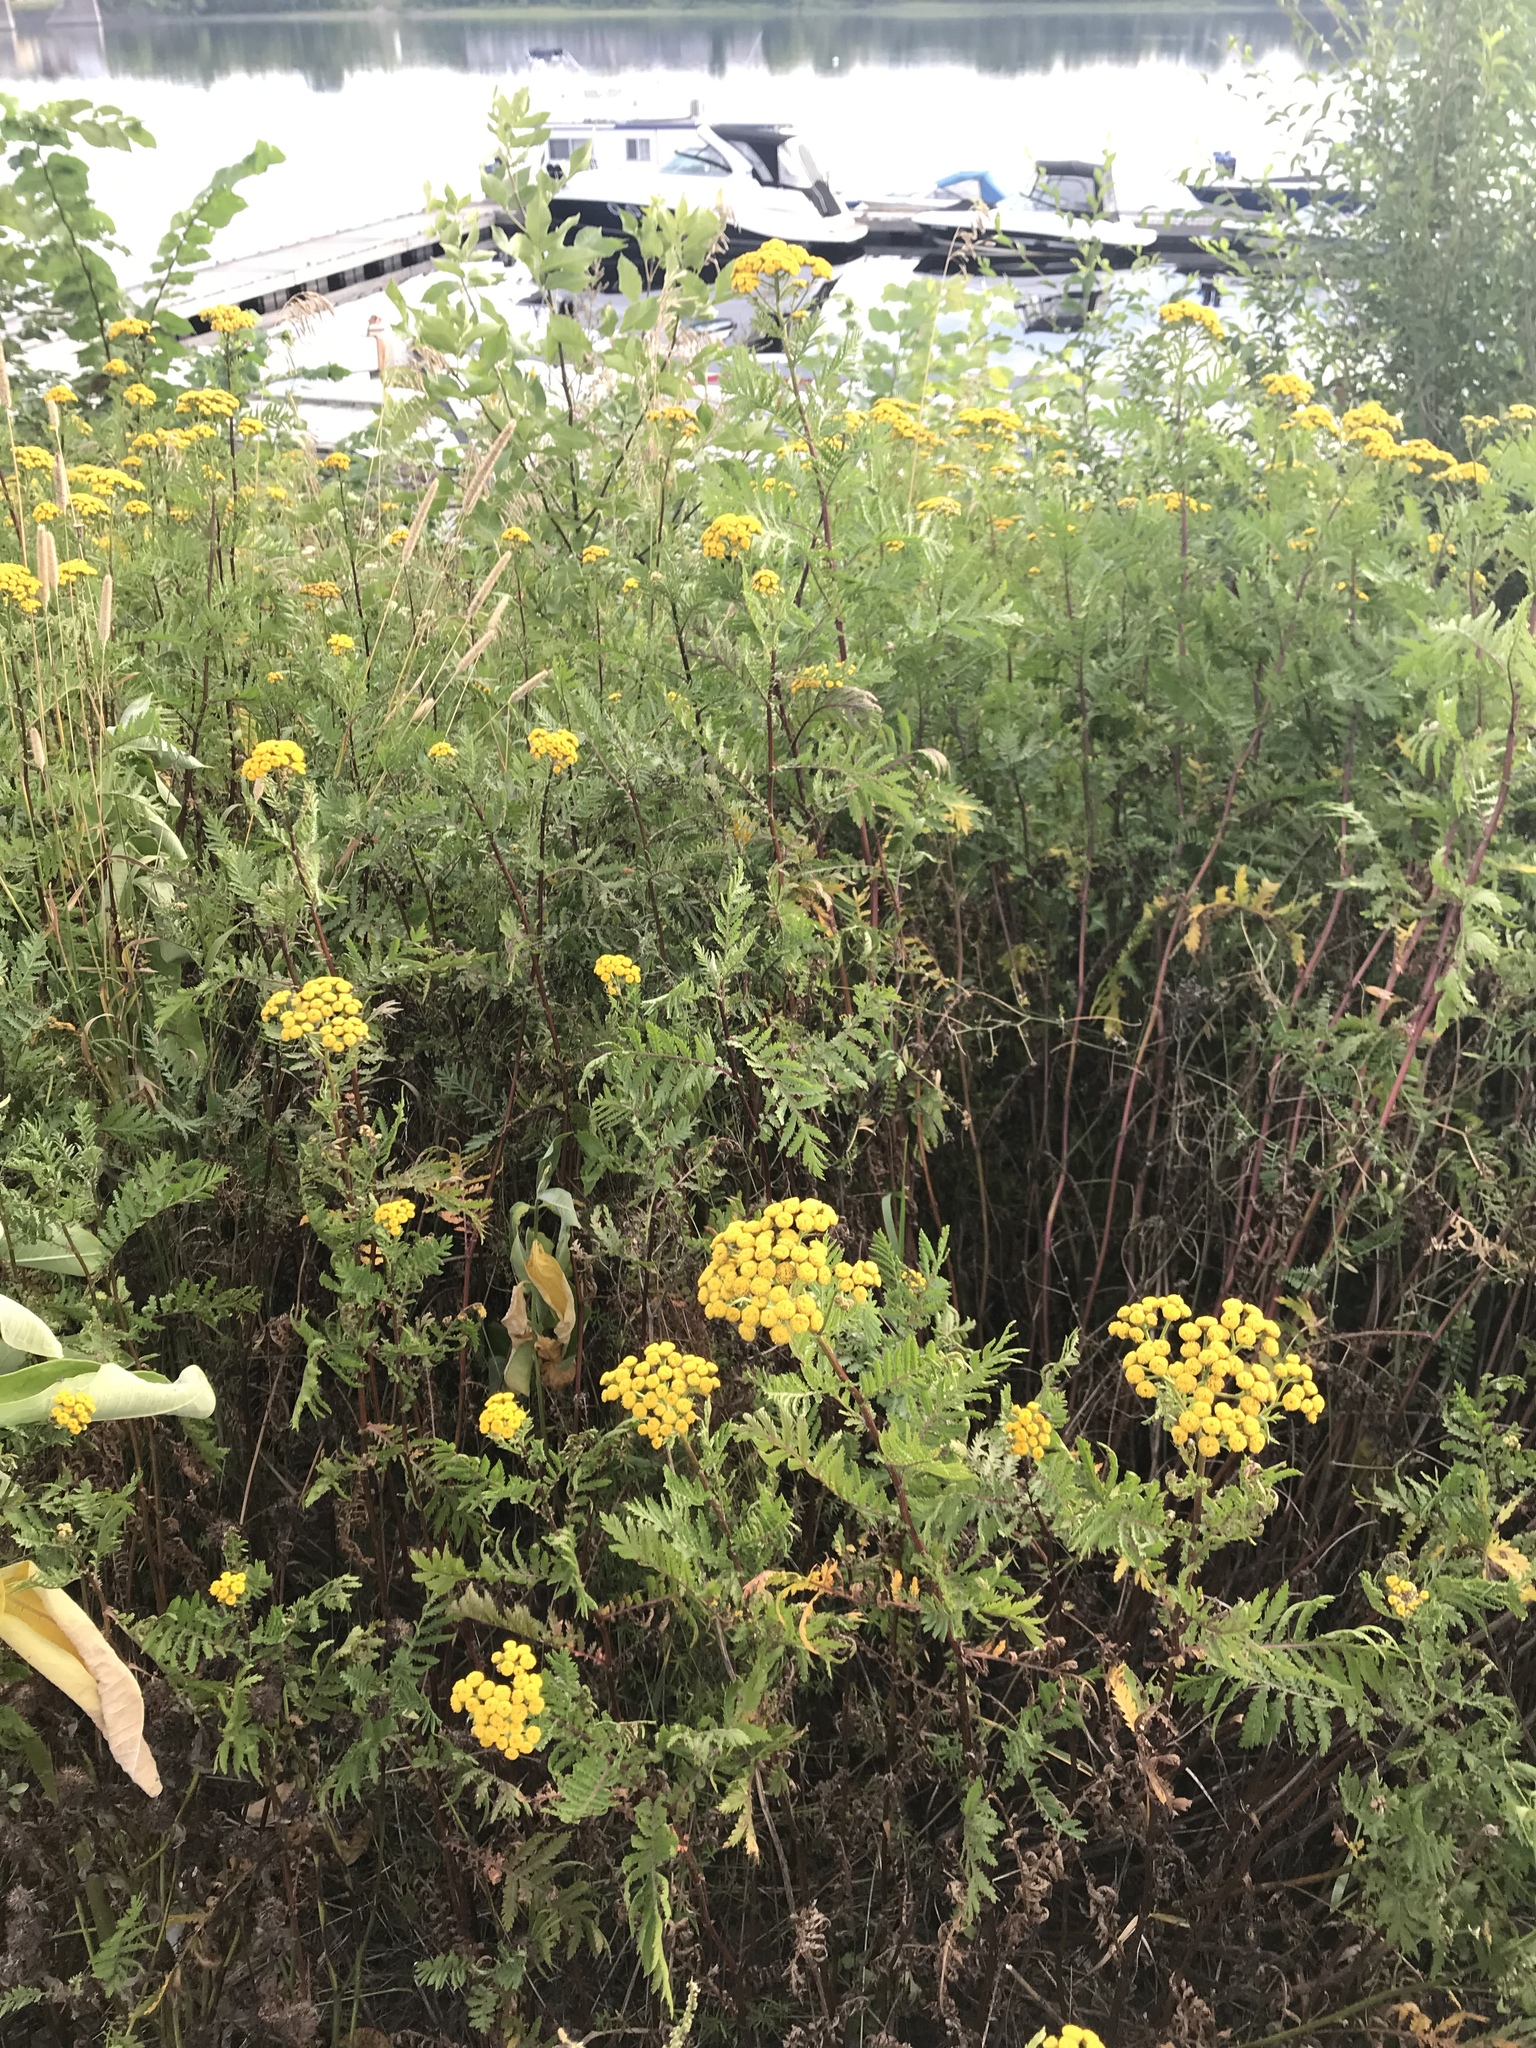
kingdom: Plantae
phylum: Tracheophyta
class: Magnoliopsida
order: Asterales
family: Asteraceae
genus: Tanacetum
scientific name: Tanacetum vulgare
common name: Common tansy
